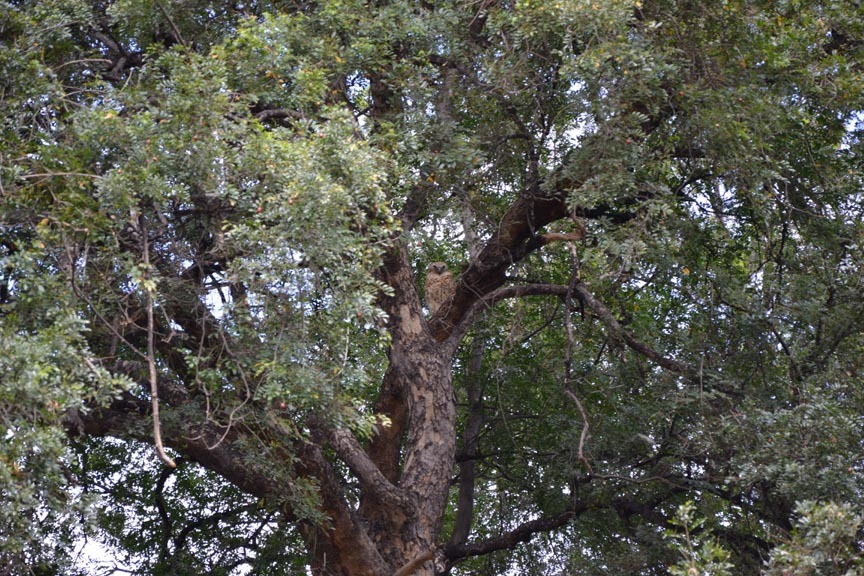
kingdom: Animalia
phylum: Chordata
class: Aves
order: Strigiformes
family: Strigidae
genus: Scotopelia
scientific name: Scotopelia peli
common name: Pel's fishing owl
